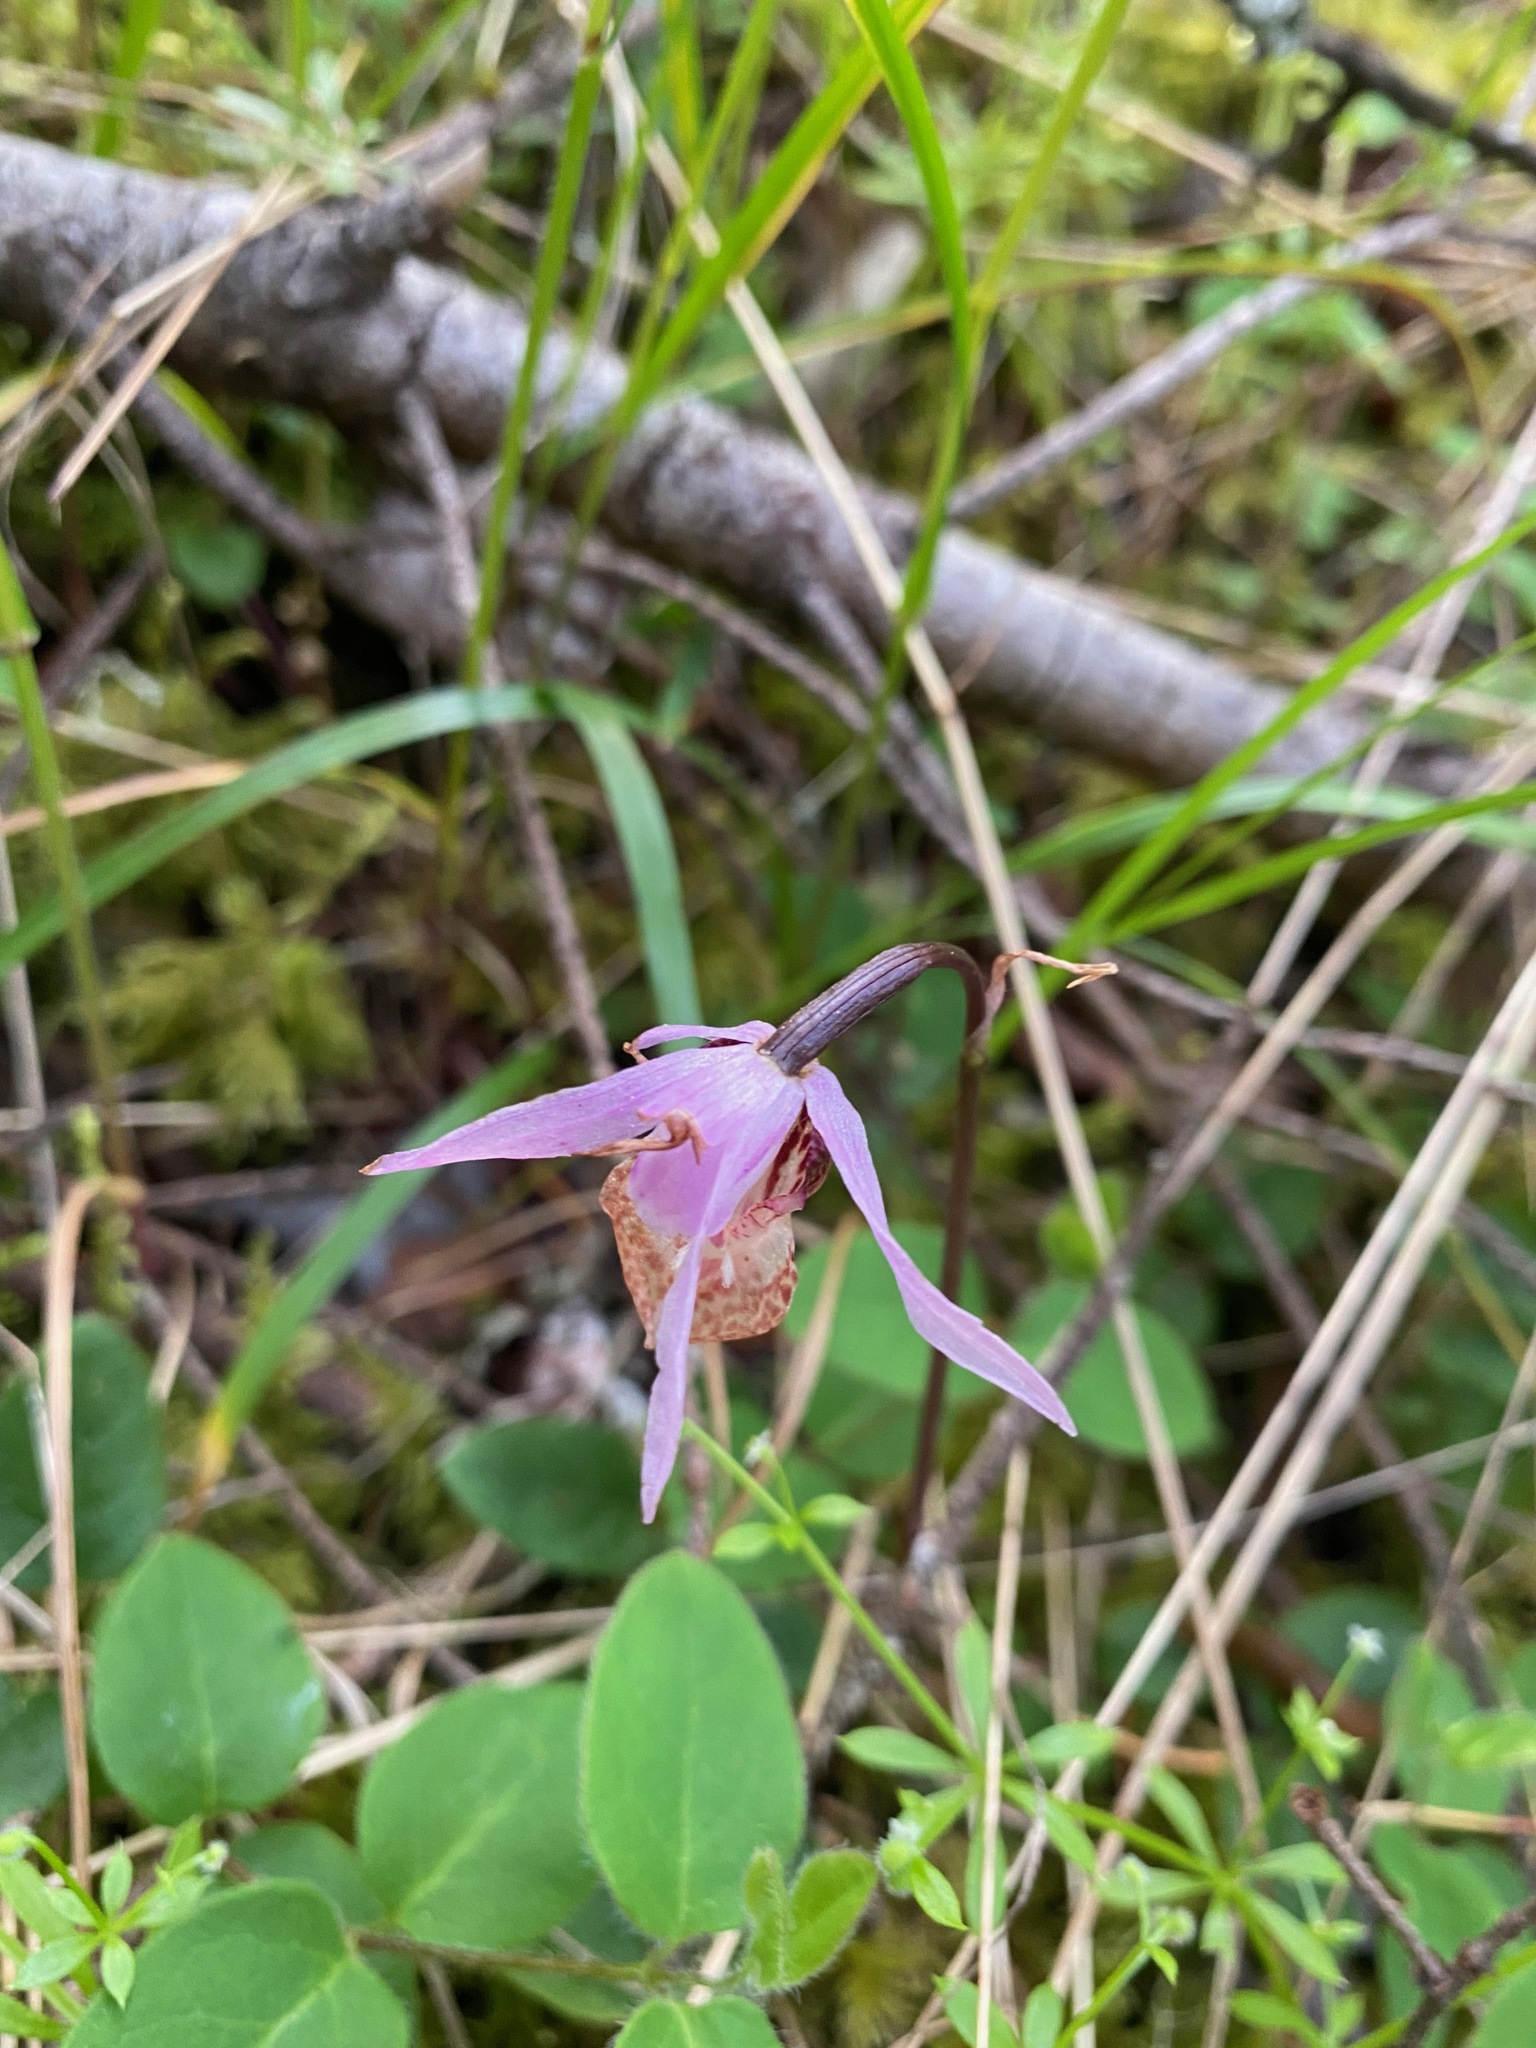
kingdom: Plantae
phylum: Tracheophyta
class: Liliopsida
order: Asparagales
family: Orchidaceae
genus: Calypso
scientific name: Calypso bulbosa
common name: Calypso
